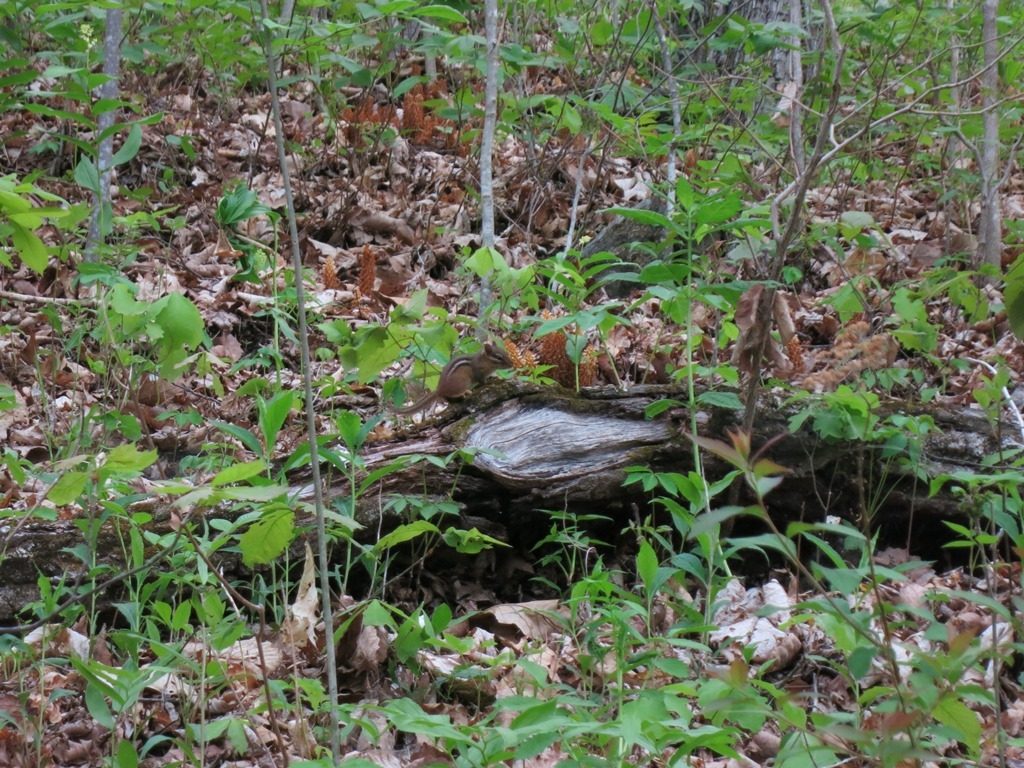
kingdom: Animalia
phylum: Chordata
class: Mammalia
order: Rodentia
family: Sciuridae
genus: Tamias
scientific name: Tamias striatus
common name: Eastern chipmunk
